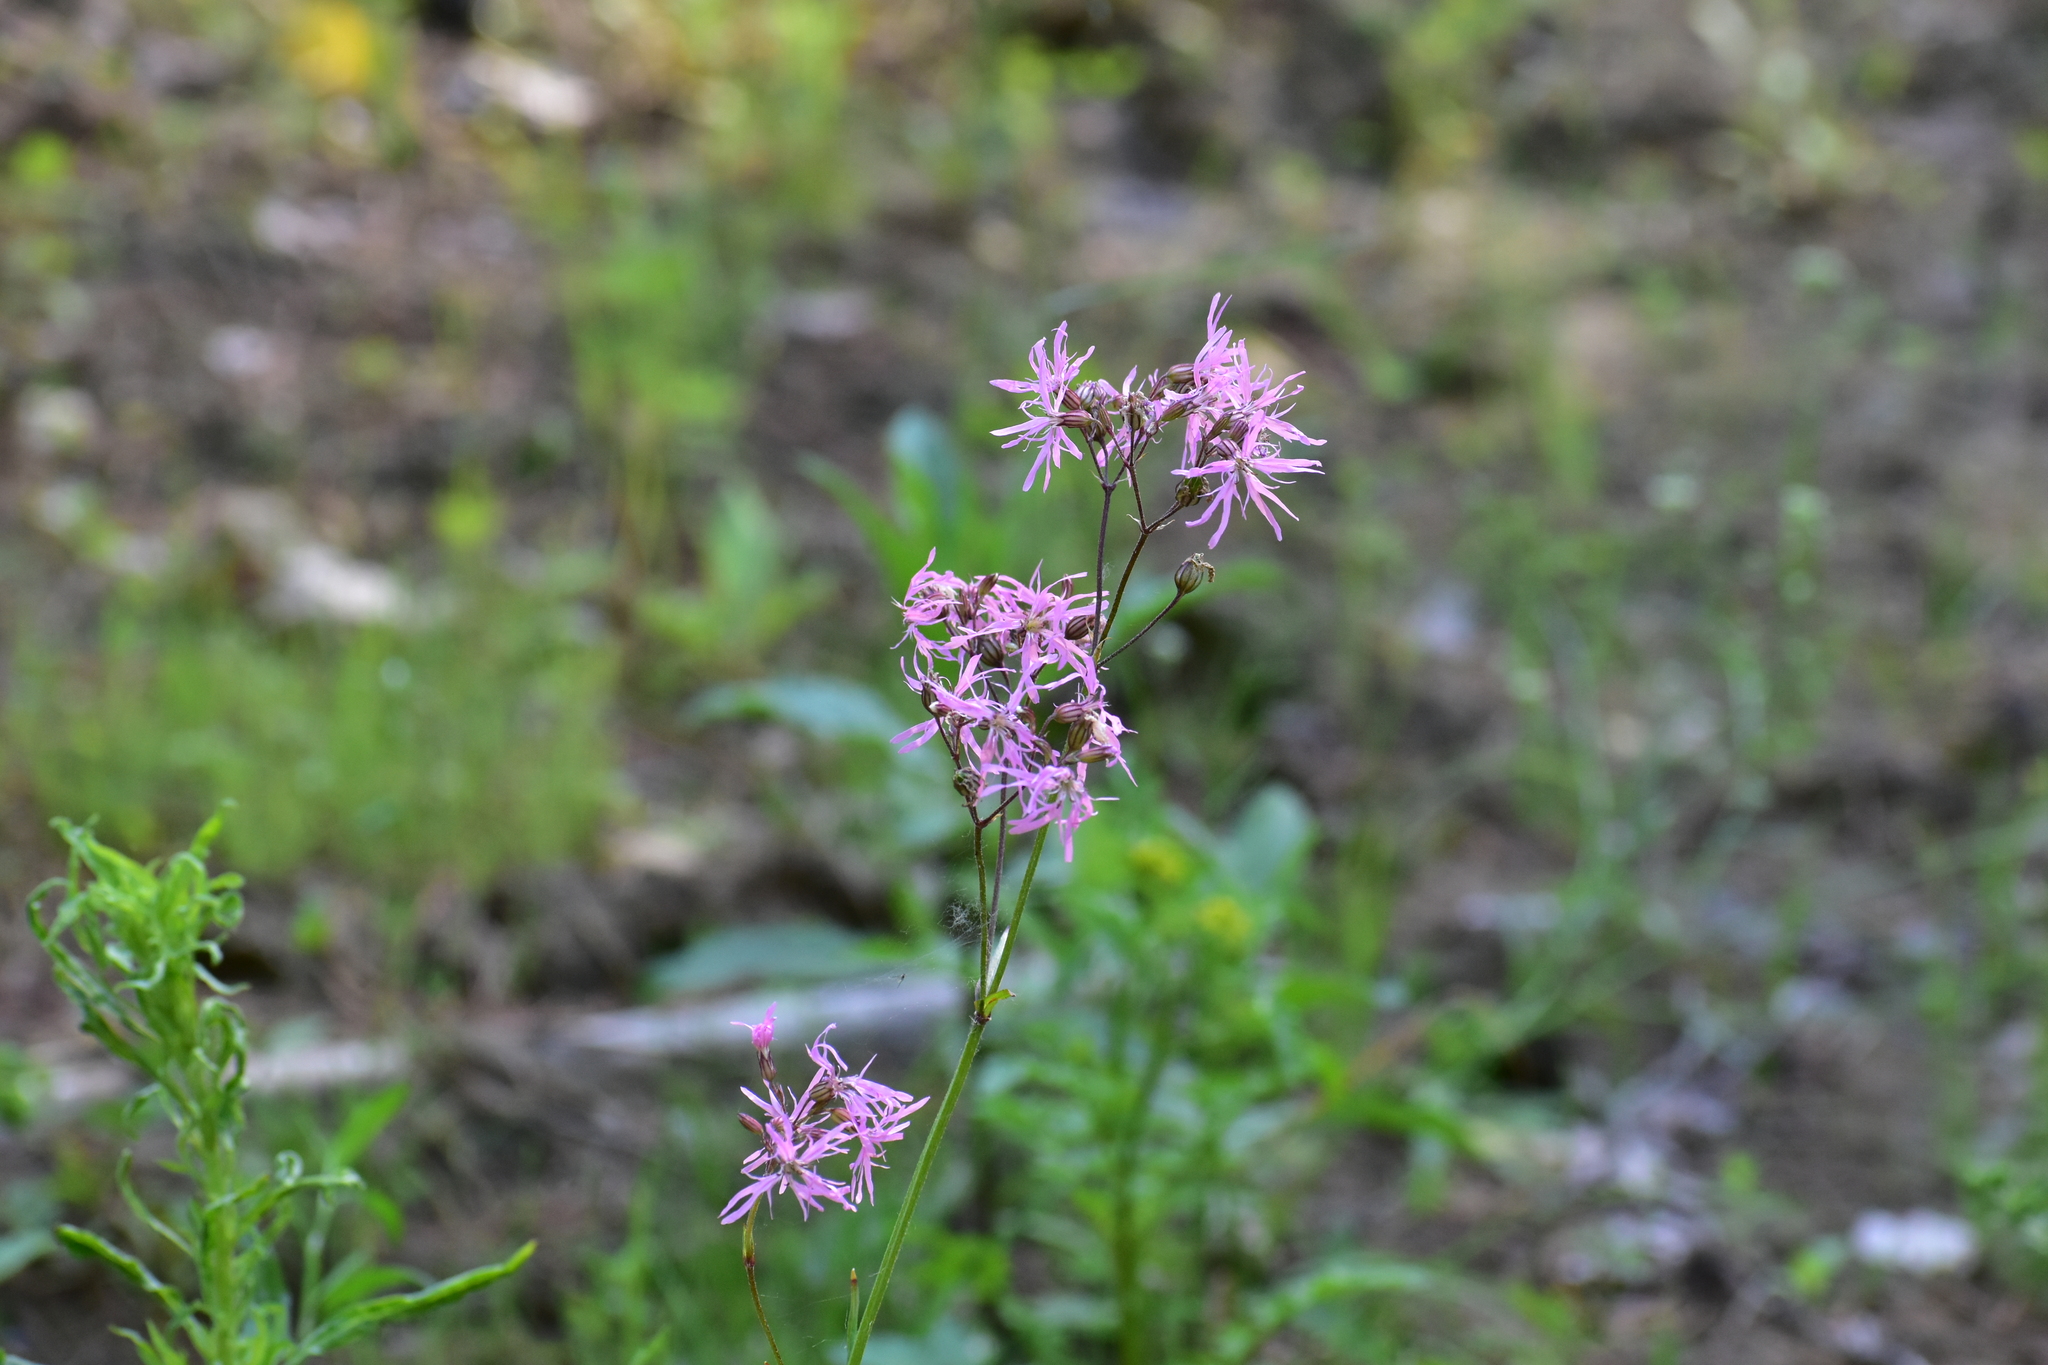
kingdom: Plantae
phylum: Tracheophyta
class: Magnoliopsida
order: Caryophyllales
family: Caryophyllaceae
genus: Silene
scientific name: Silene flos-cuculi
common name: Ragged-robin
